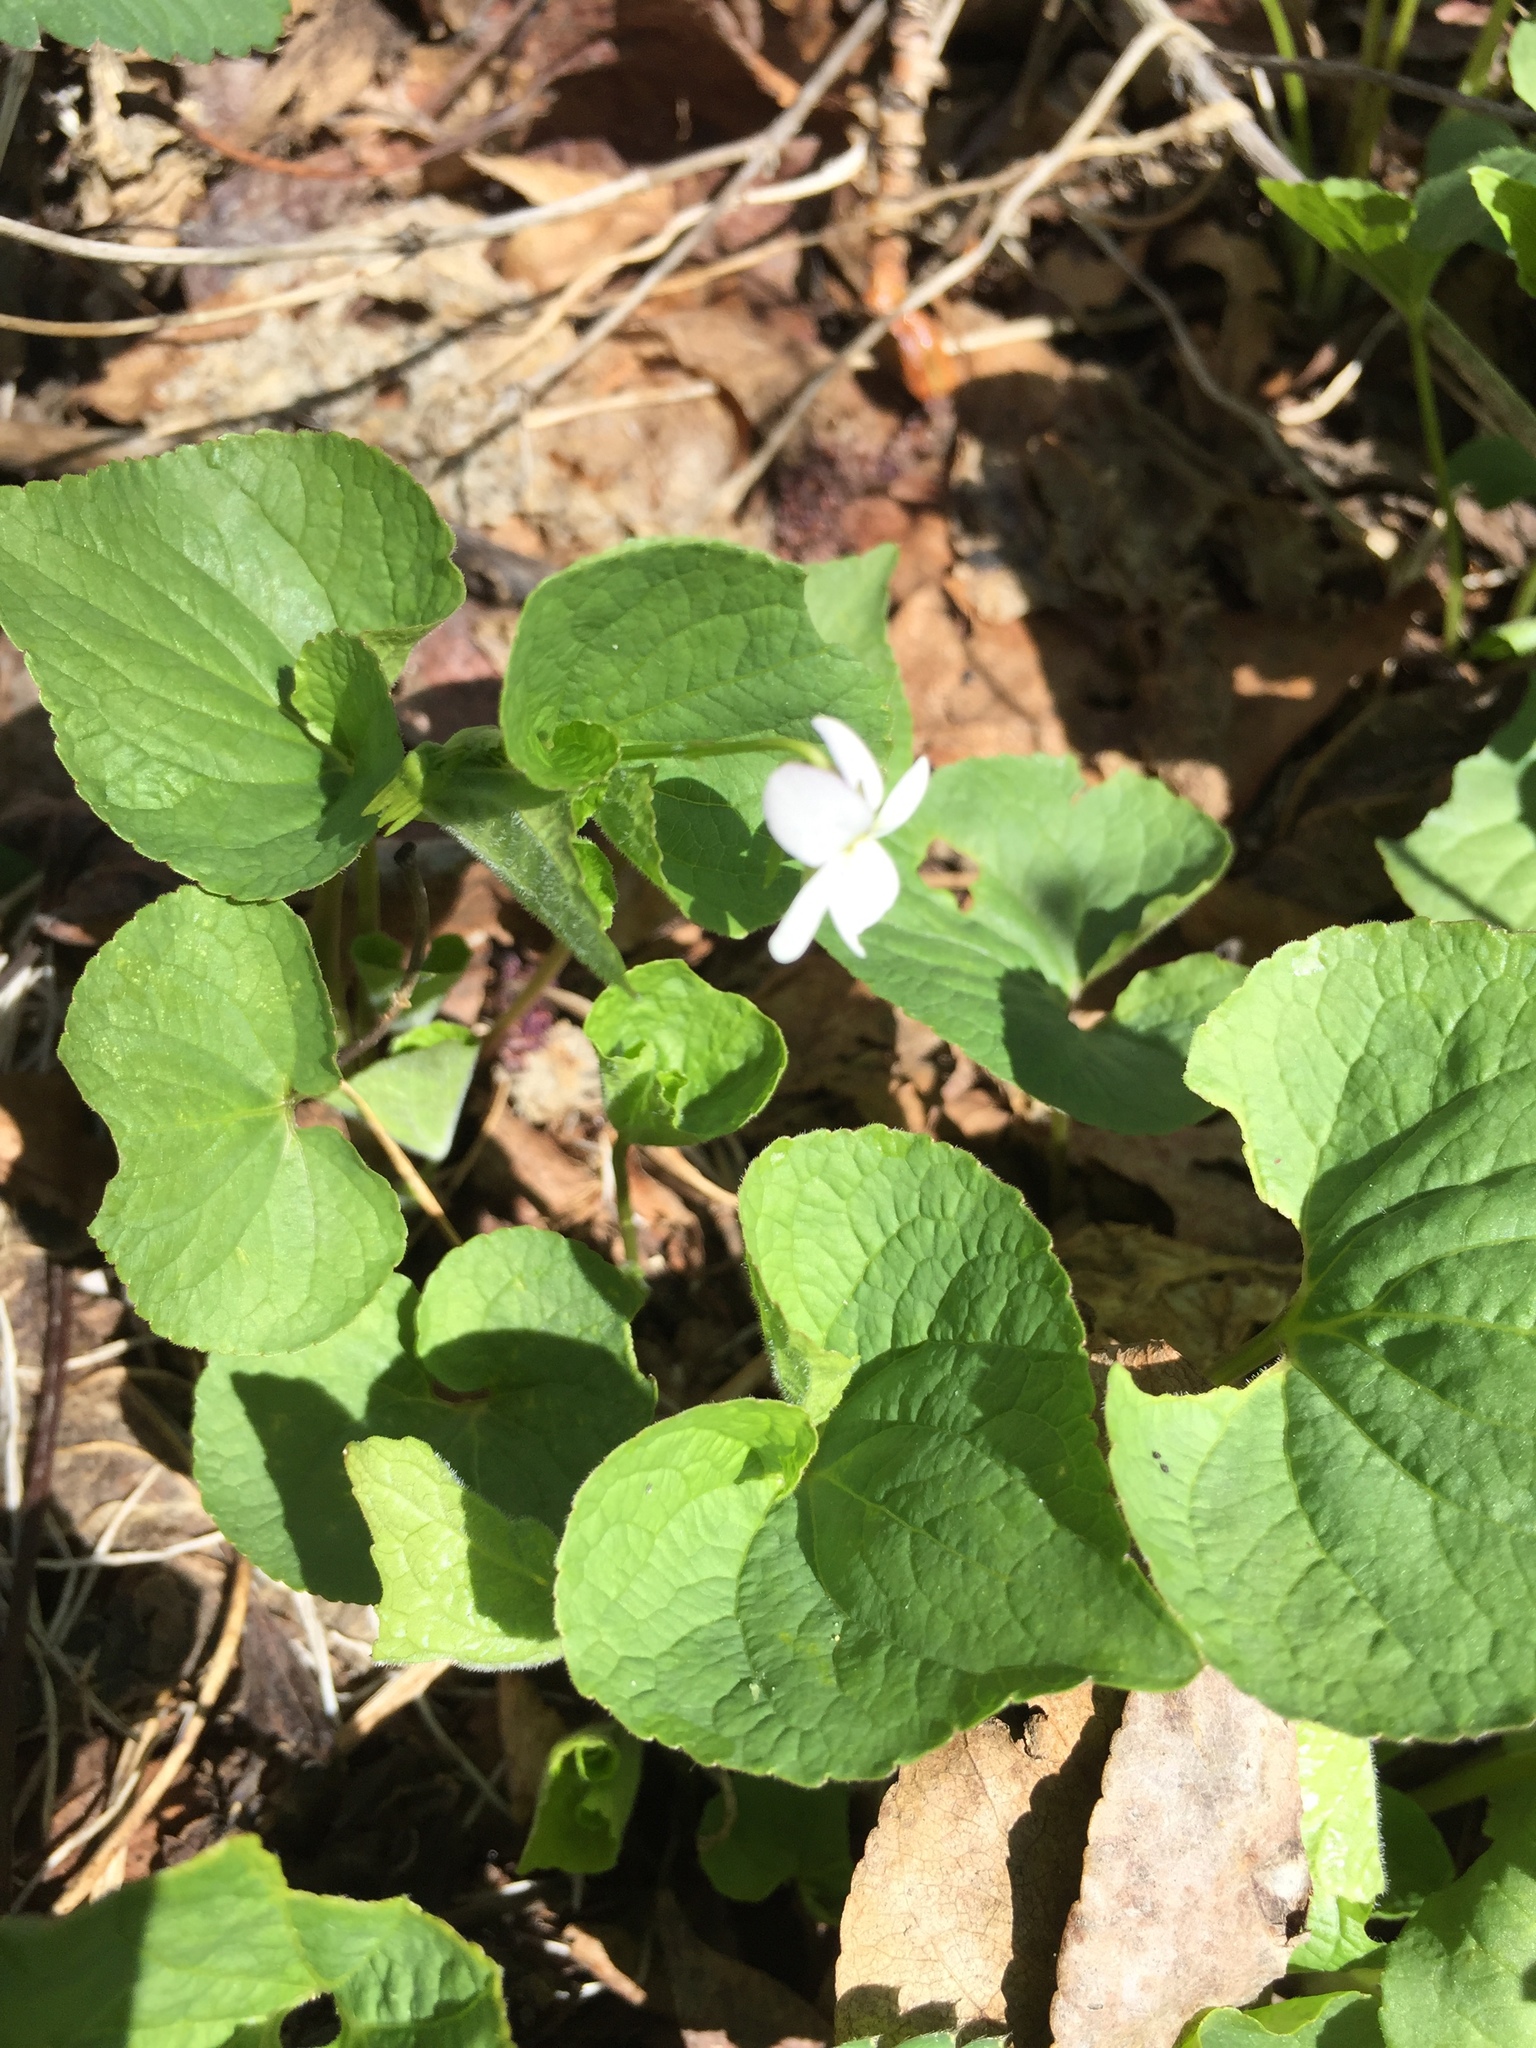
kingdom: Plantae
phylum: Tracheophyta
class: Magnoliopsida
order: Malpighiales
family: Violaceae
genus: Viola
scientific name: Viola canadensis
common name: Canada violet
